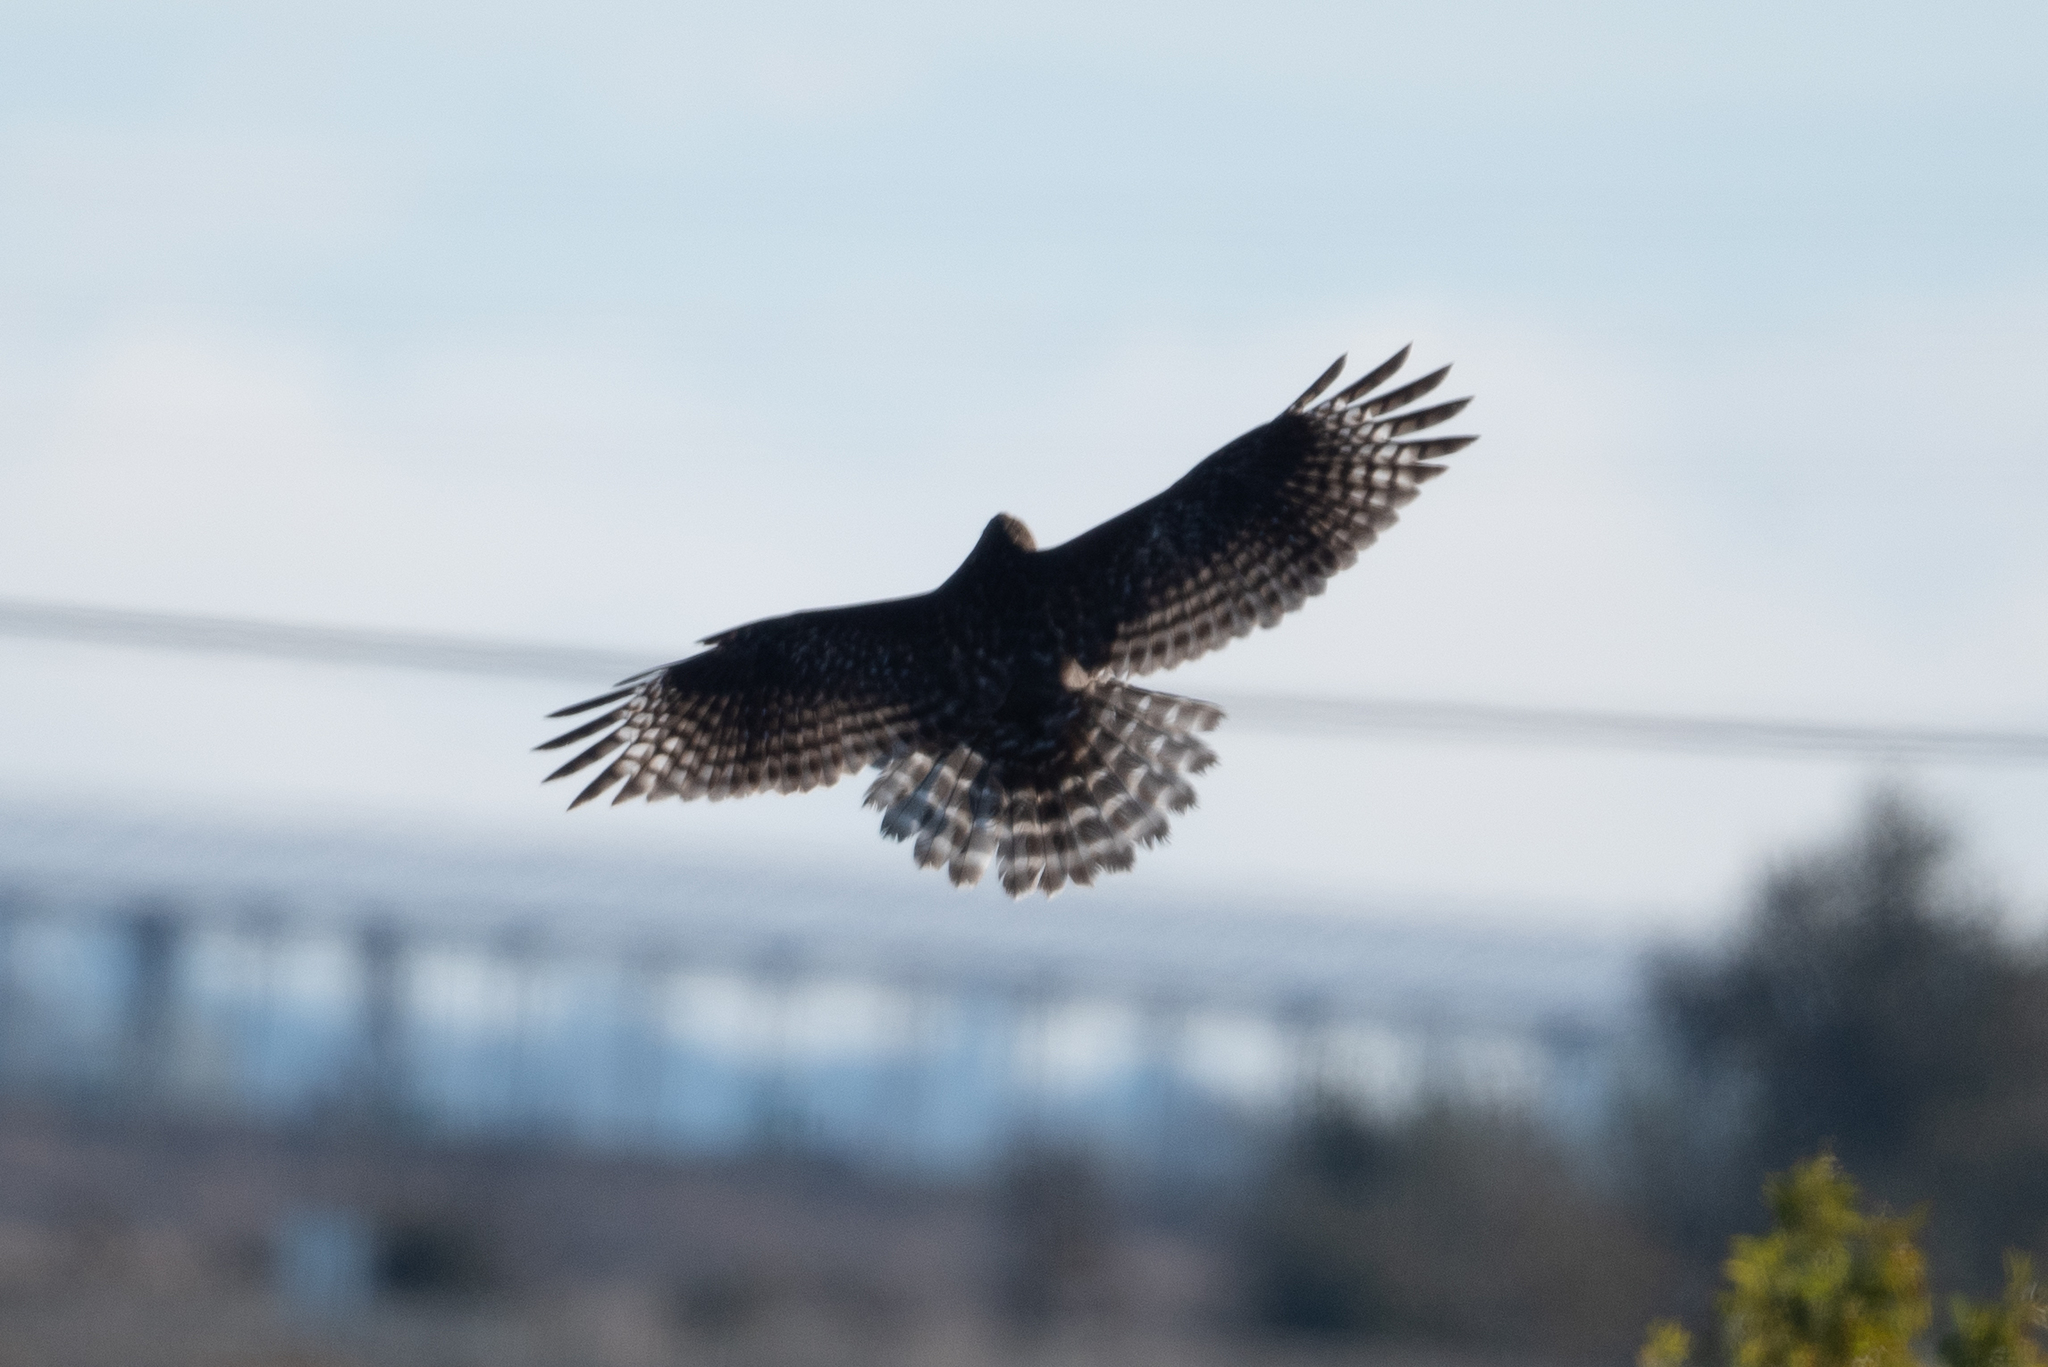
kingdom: Animalia
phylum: Chordata
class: Aves
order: Accipitriformes
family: Accipitridae
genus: Buteo
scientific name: Buteo lineatus
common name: Red-shouldered hawk
